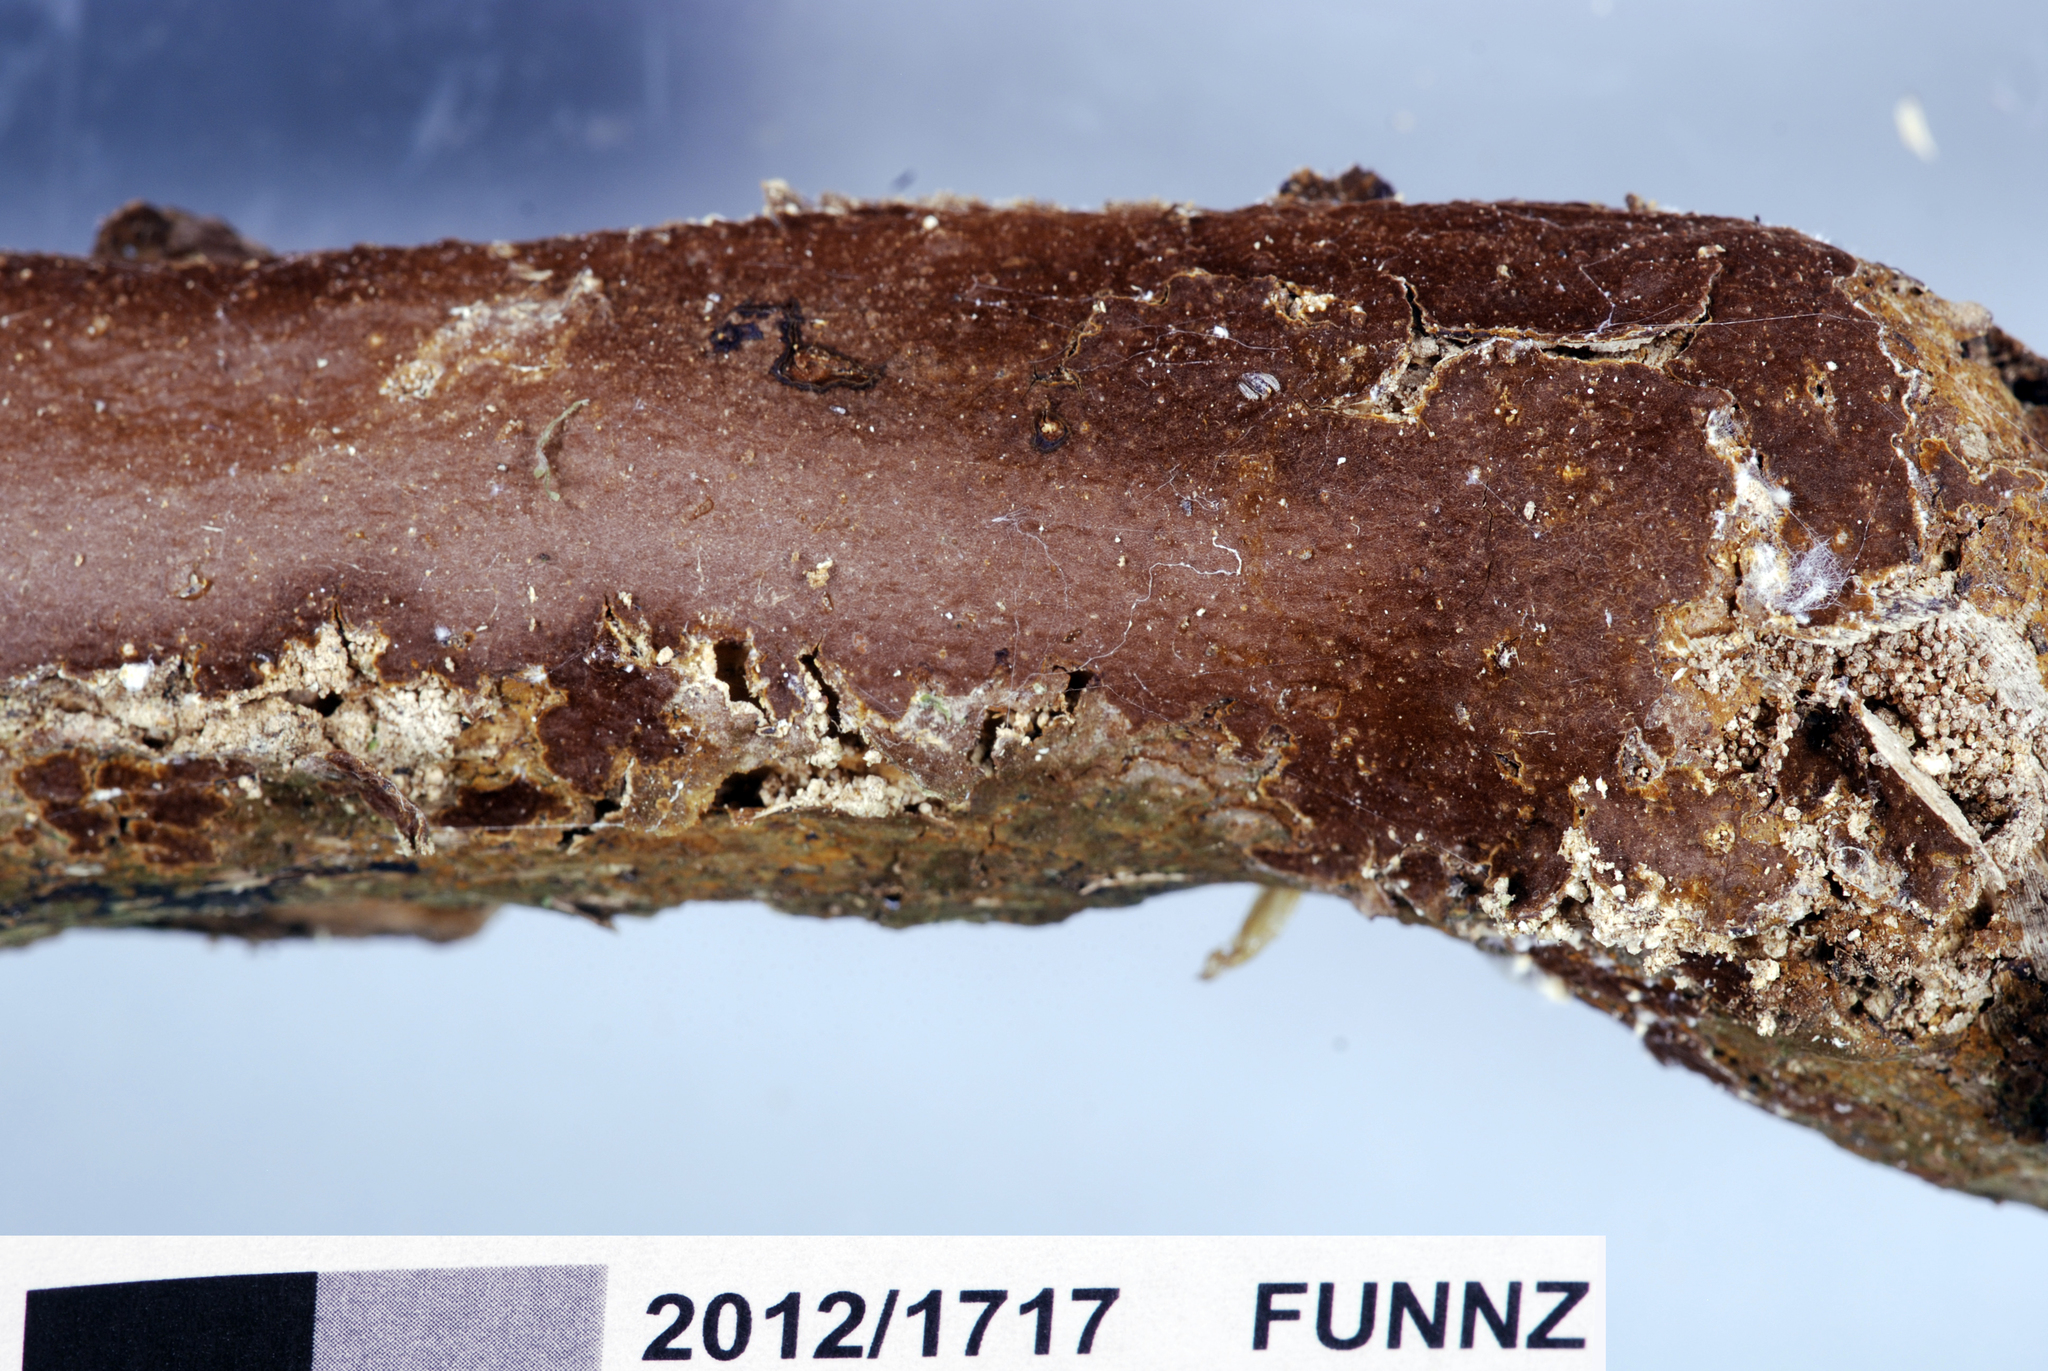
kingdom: Fungi
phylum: Basidiomycota
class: Agaricomycetes
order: Hymenochaetales
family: Hymenochaetaceae
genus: Hymenochaete
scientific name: Hymenochaete innexa
